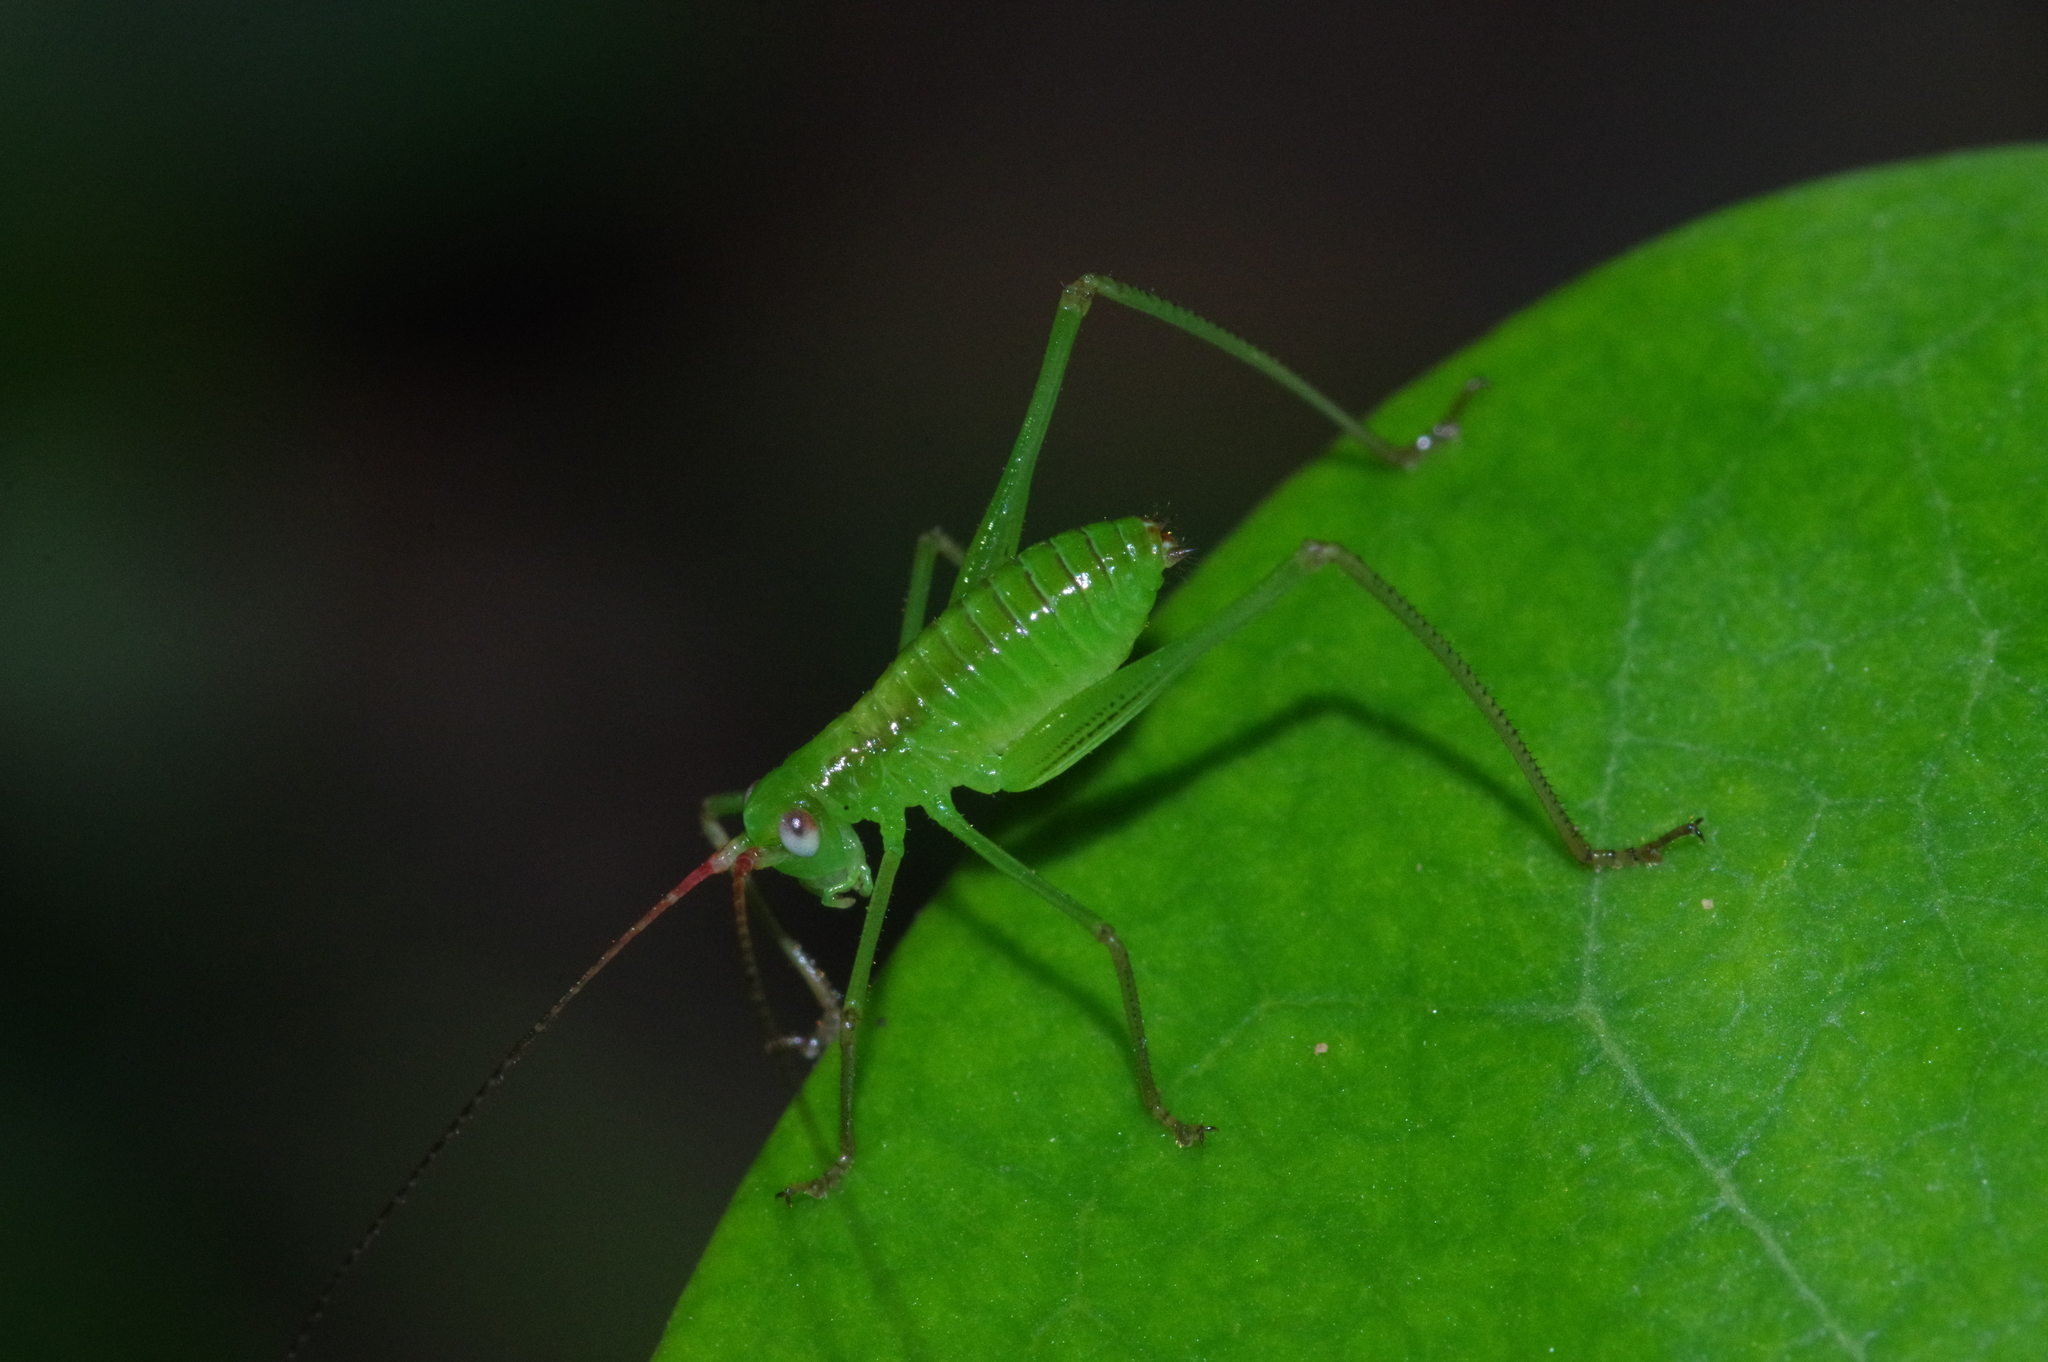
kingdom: Animalia
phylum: Arthropoda
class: Insecta
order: Orthoptera
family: Tettigoniidae
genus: Psyrana
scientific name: Psyrana ryukyuensis
